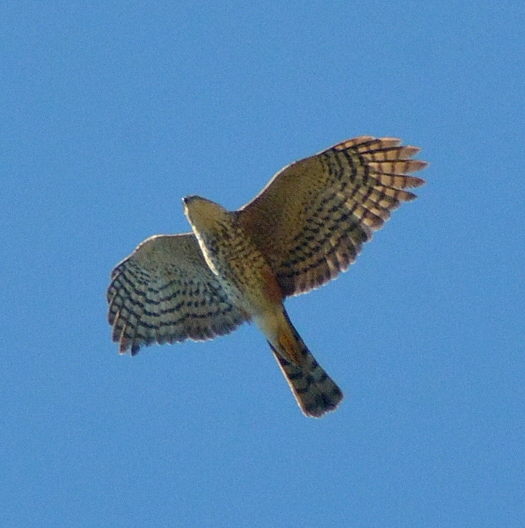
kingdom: Animalia
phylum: Chordata
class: Aves
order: Accipitriformes
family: Accipitridae
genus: Accipiter
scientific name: Accipiter striatus
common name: Sharp-shinned hawk
